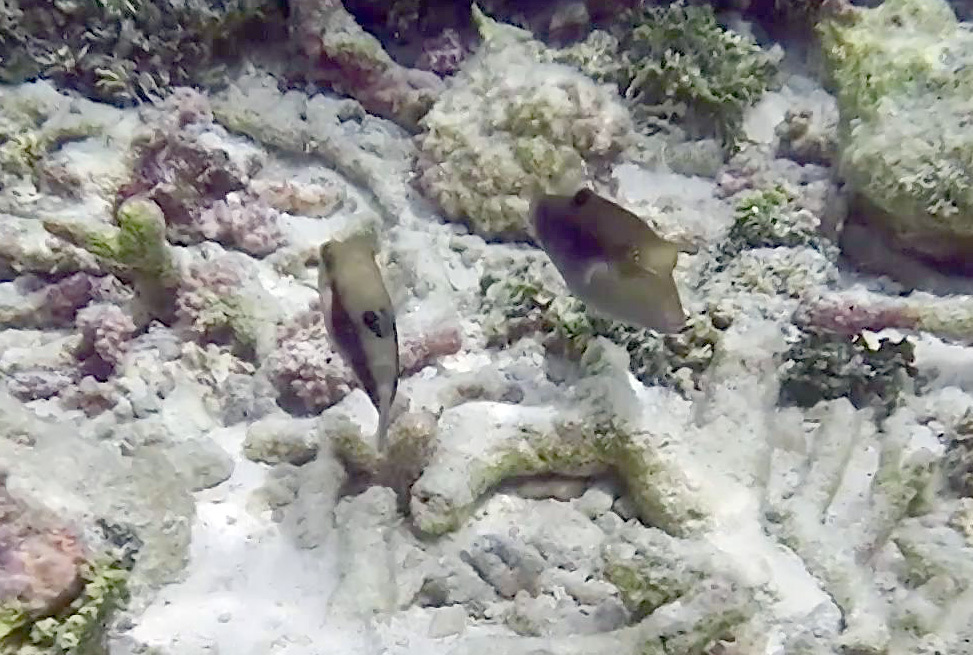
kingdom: Animalia
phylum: Chordata
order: Tetraodontiformes
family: Tetraodontidae
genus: Canthigaster
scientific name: Canthigaster bennetti
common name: Bennett's pufferfish
